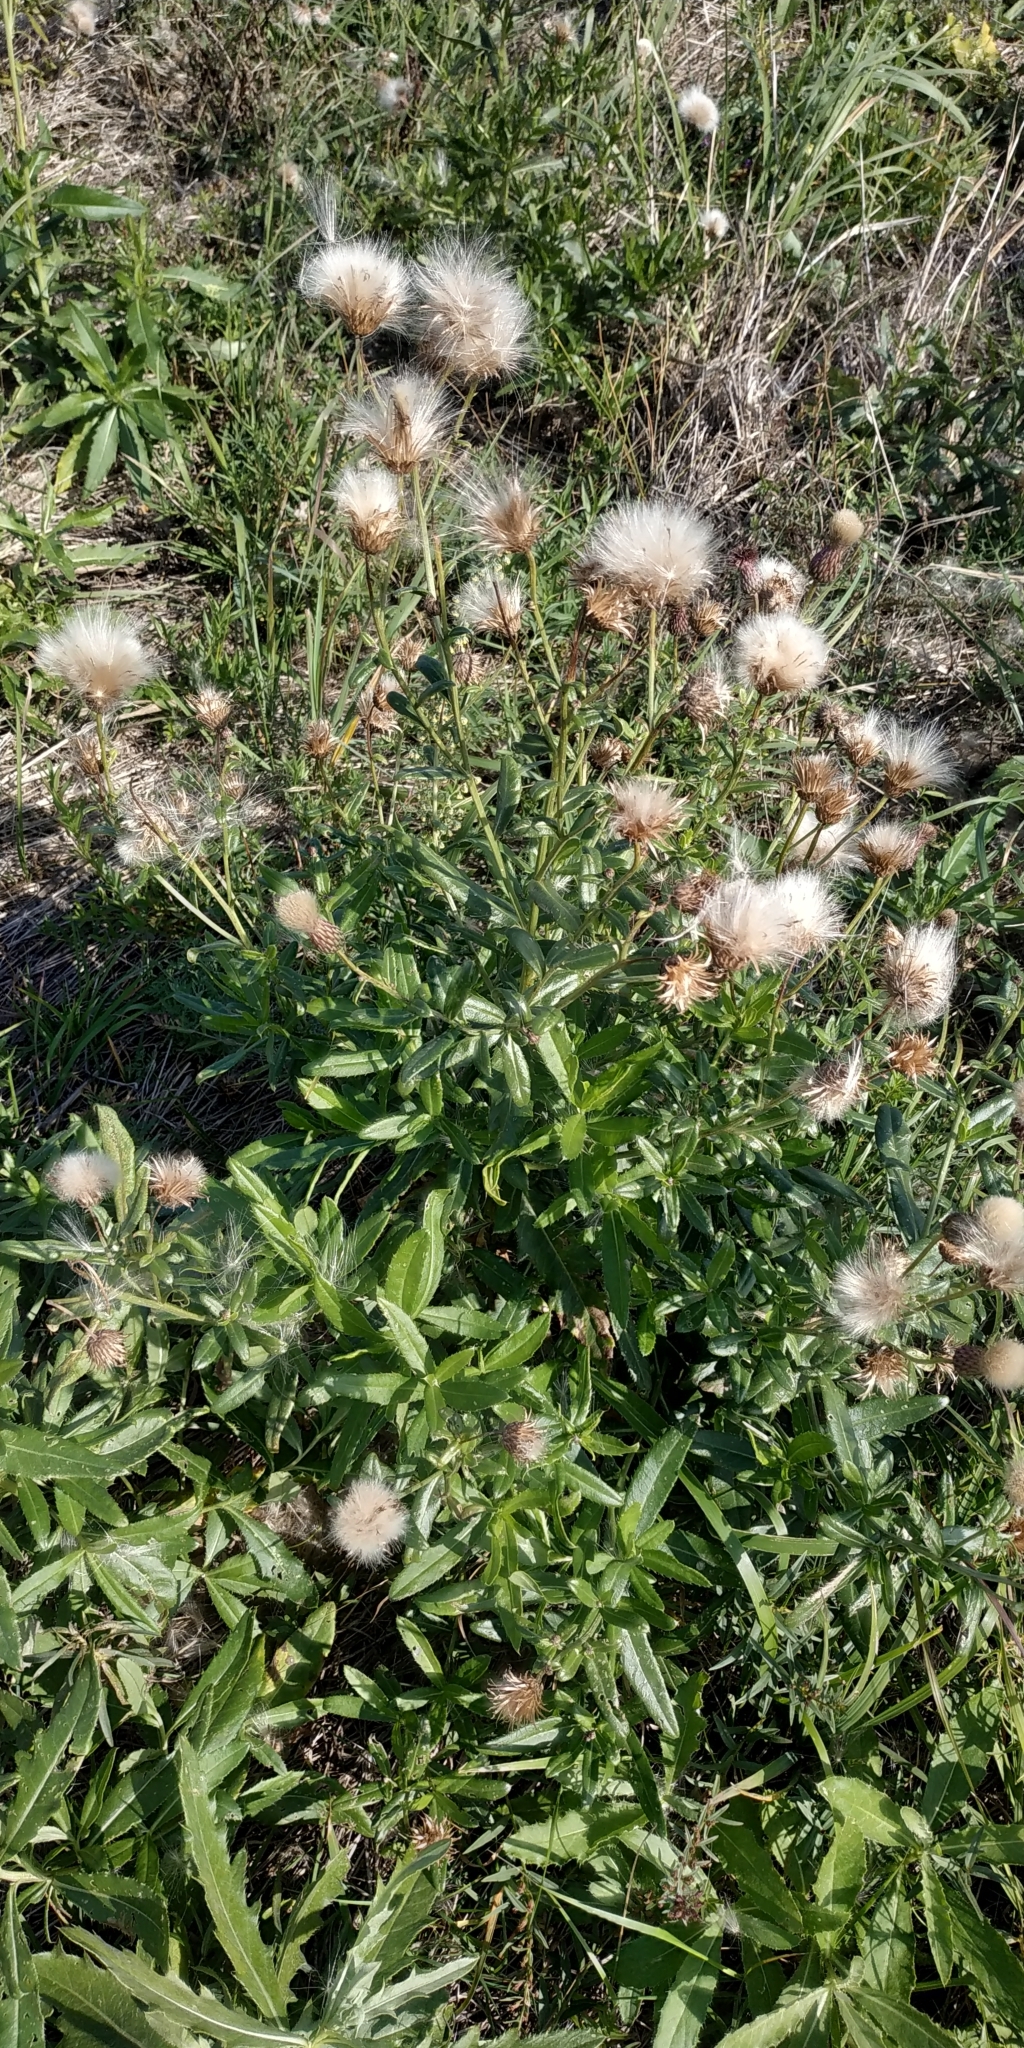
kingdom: Plantae
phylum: Tracheophyta
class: Magnoliopsida
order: Asterales
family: Asteraceae
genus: Cirsium
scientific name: Cirsium arvense
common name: Creeping thistle
